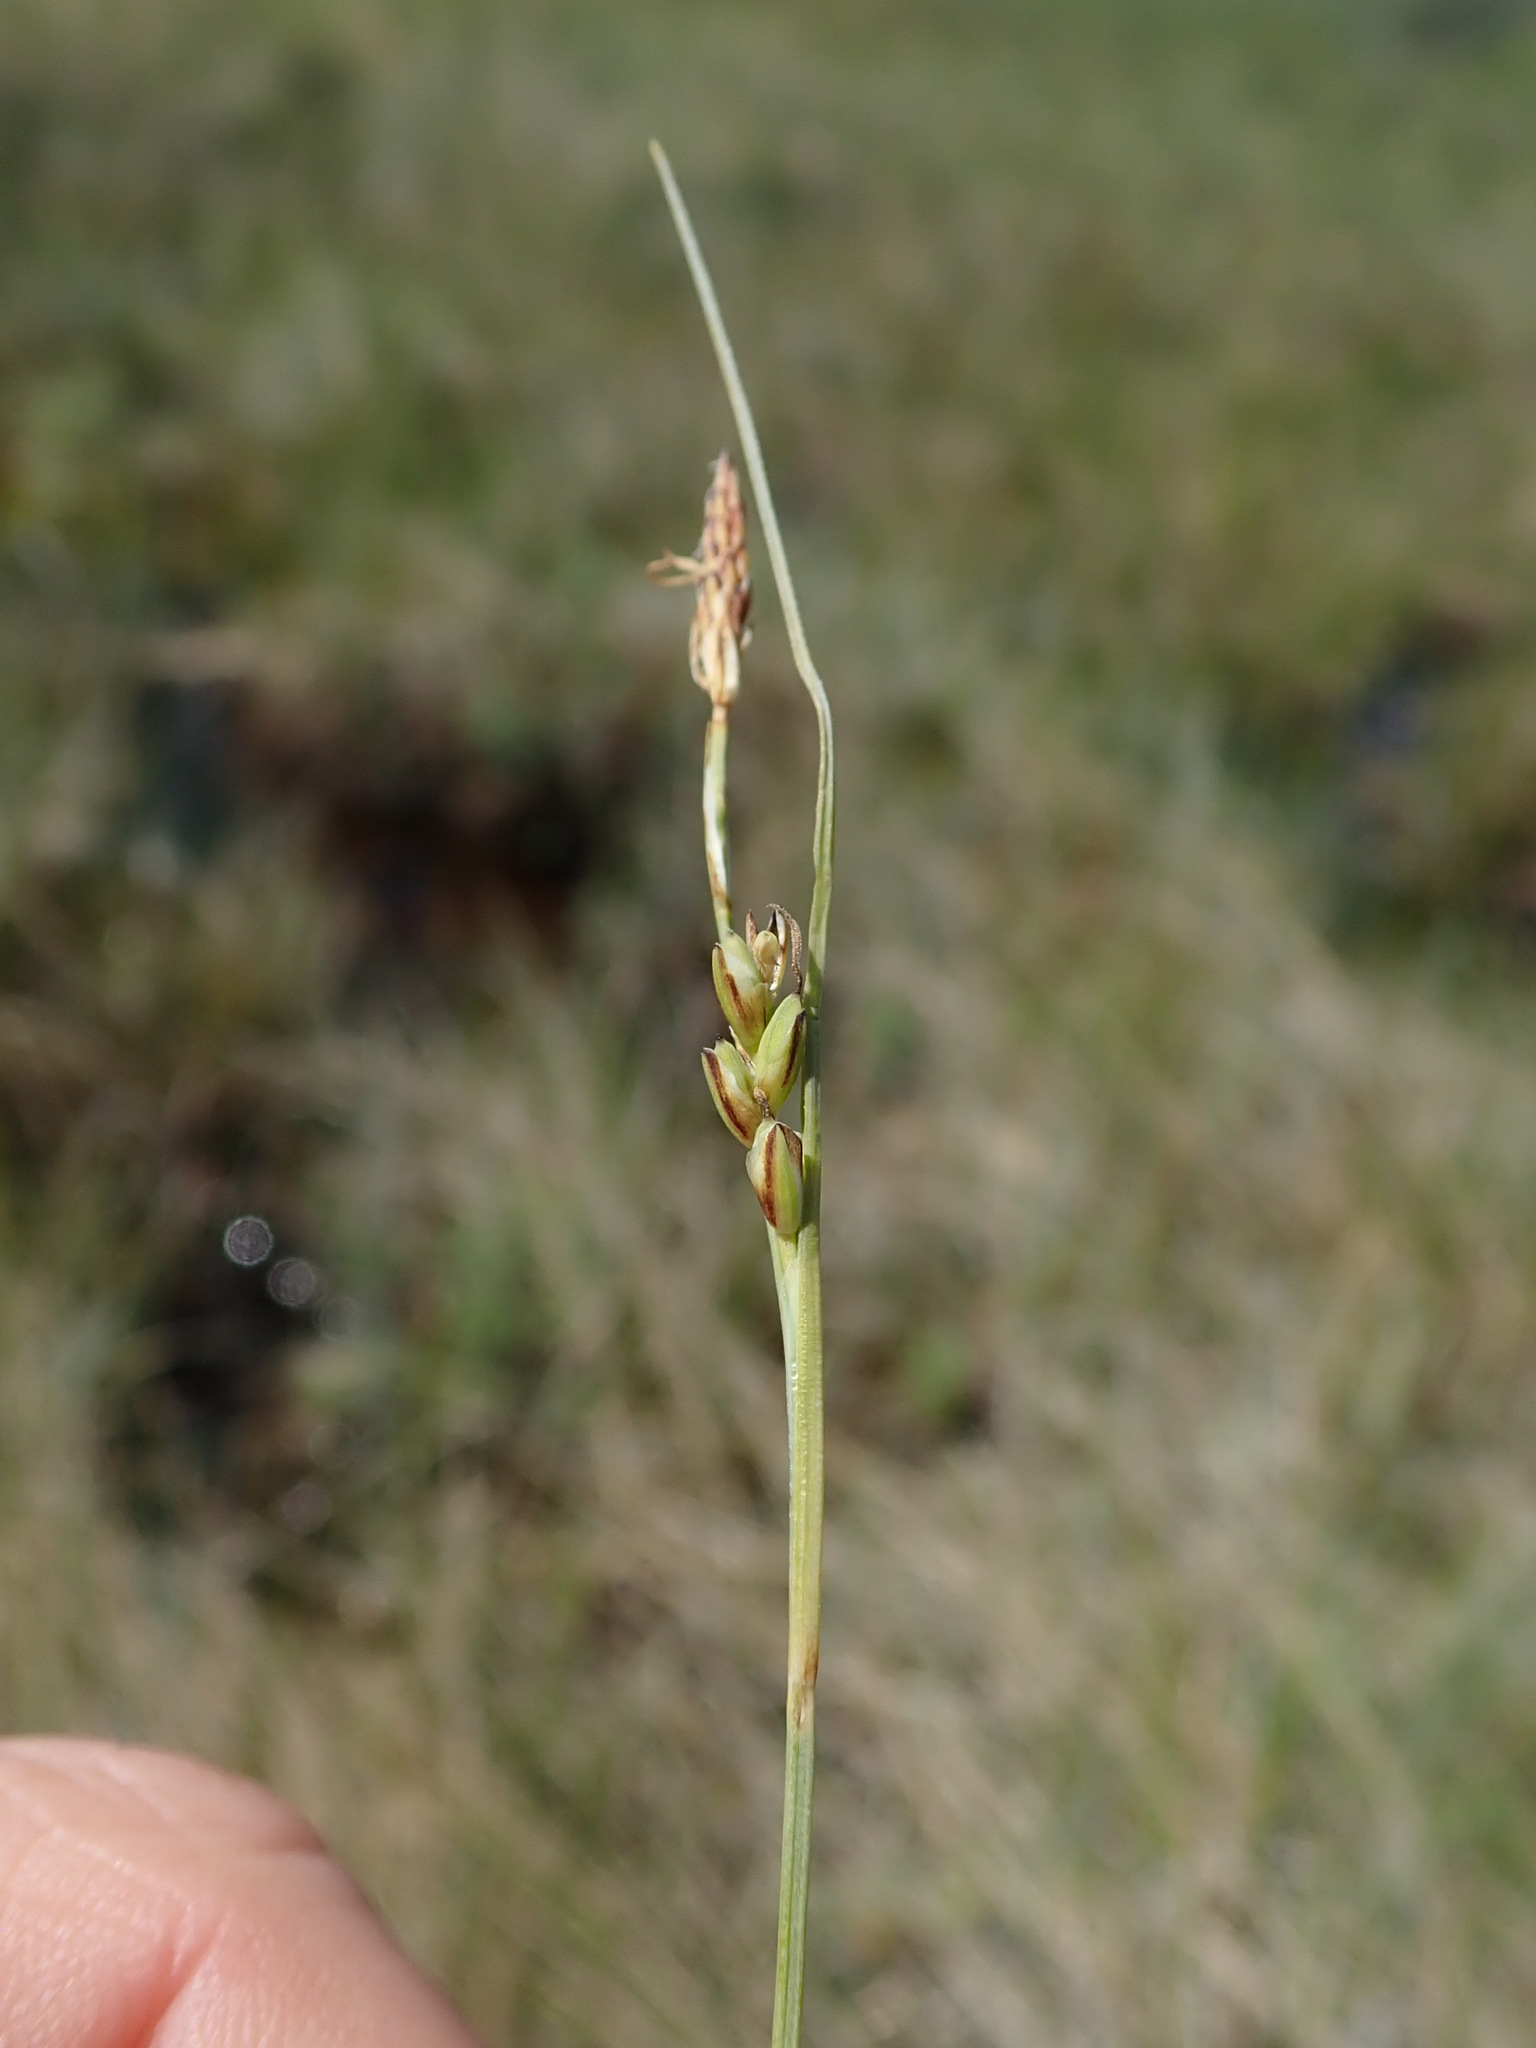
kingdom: Plantae
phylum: Tracheophyta
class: Liliopsida
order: Poales
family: Cyperaceae
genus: Carex
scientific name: Carex livida
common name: Livid sedge
